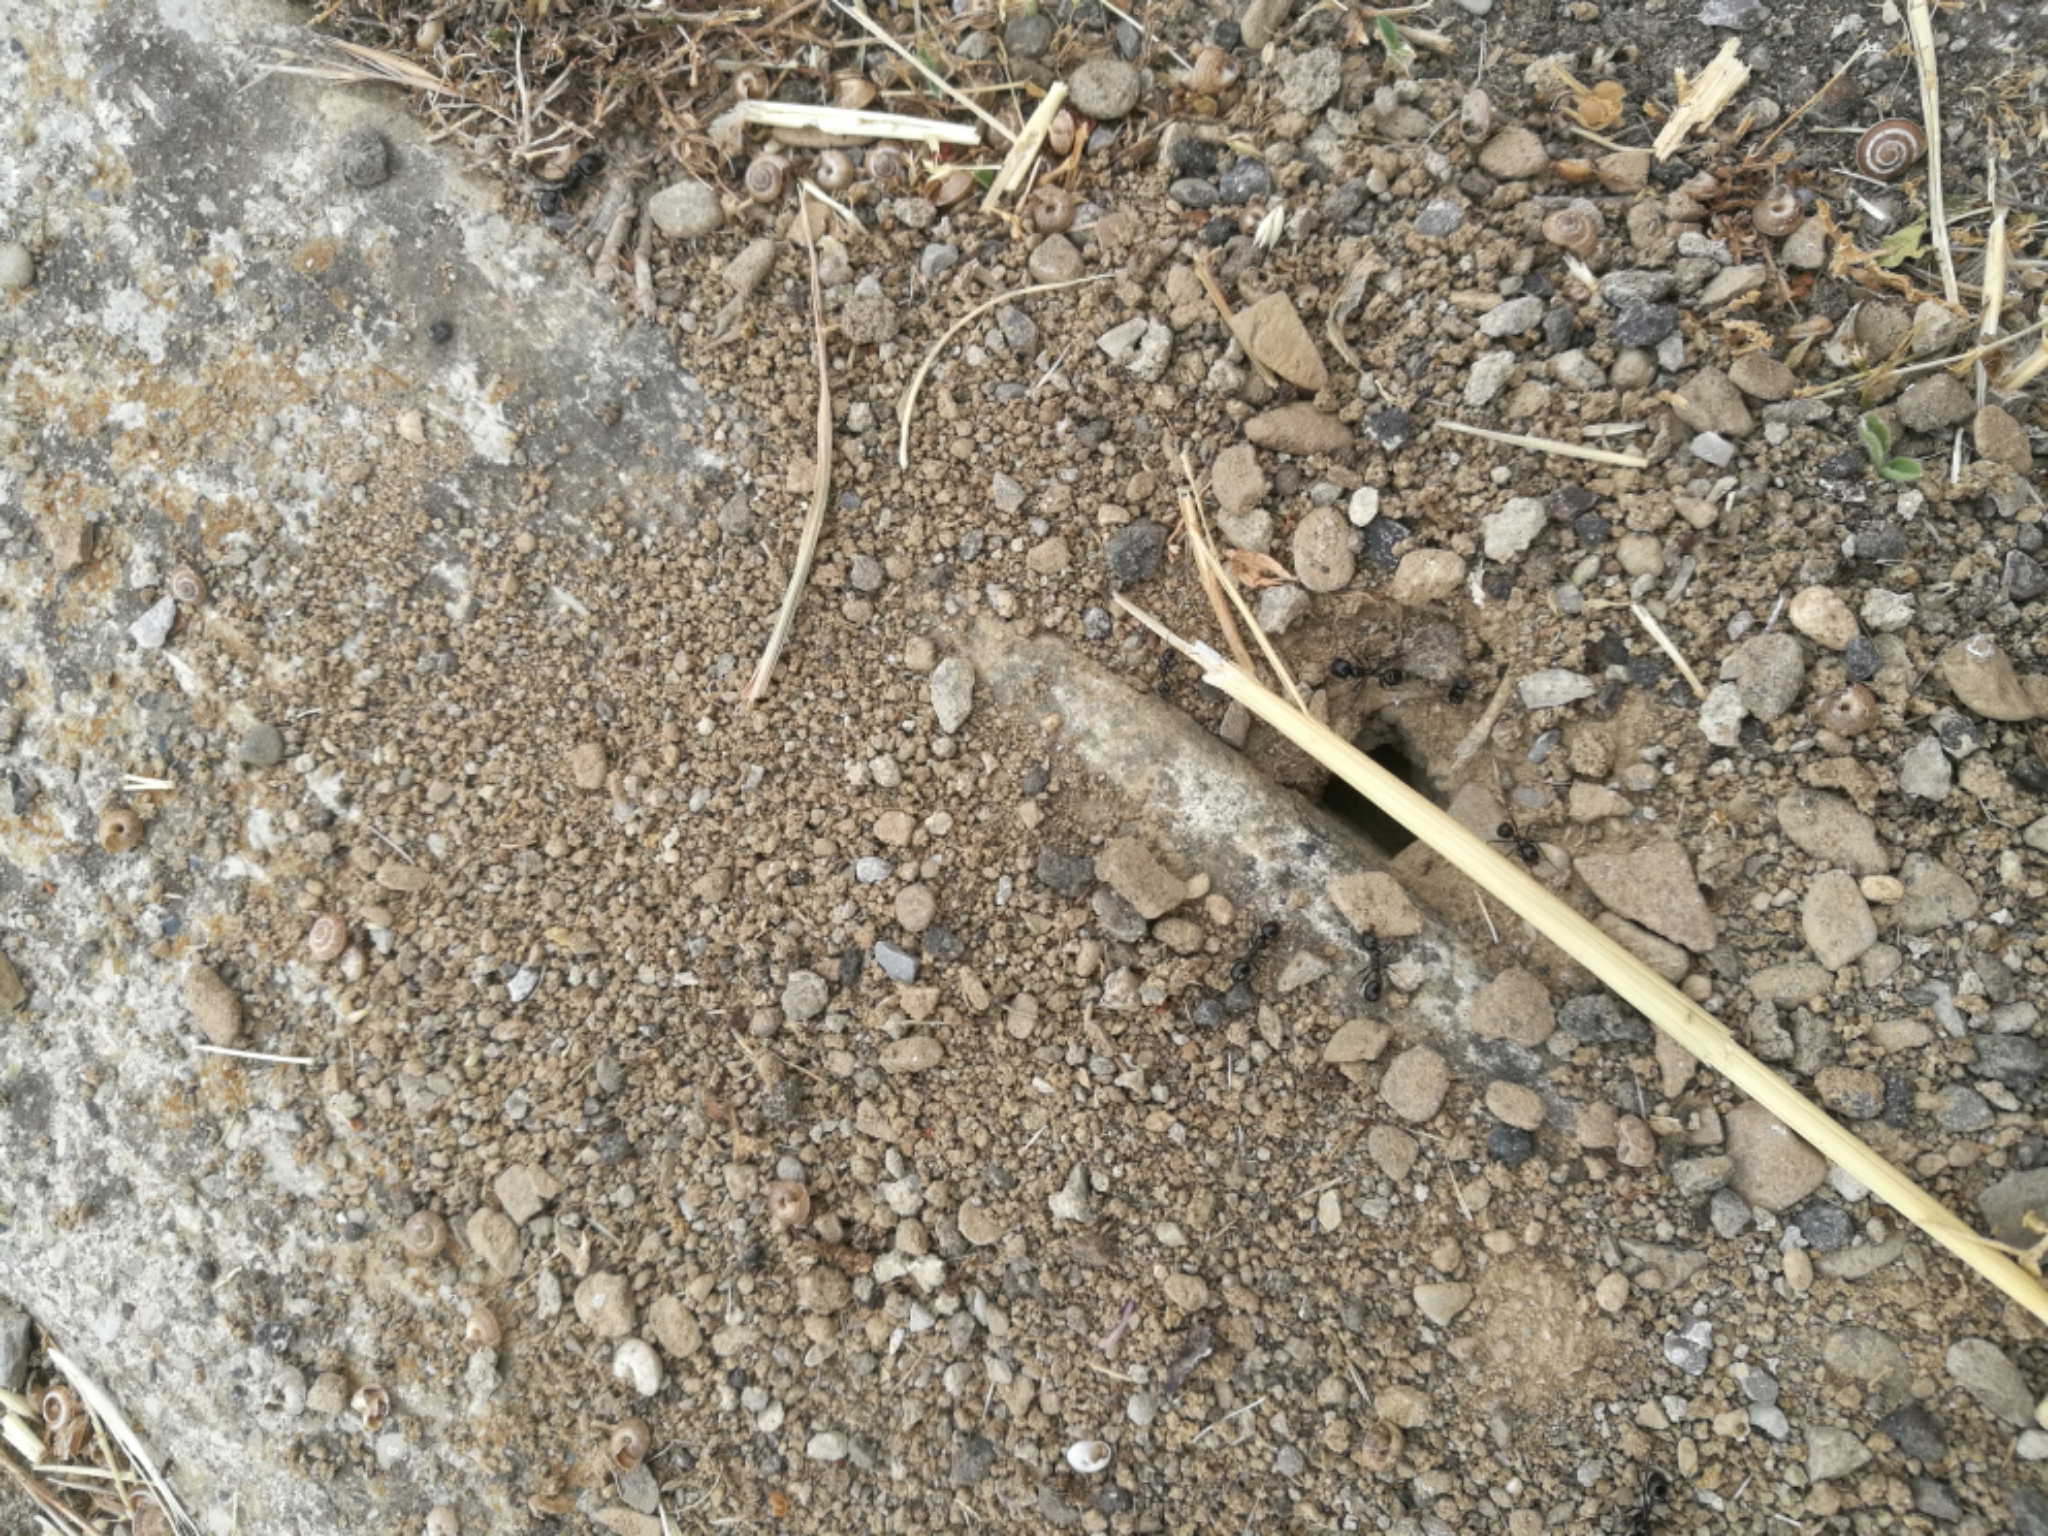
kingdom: Animalia
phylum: Arthropoda
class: Insecta
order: Hymenoptera
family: Formicidae
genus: Messor
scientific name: Messor capitatus
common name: European seed harvesting ant
